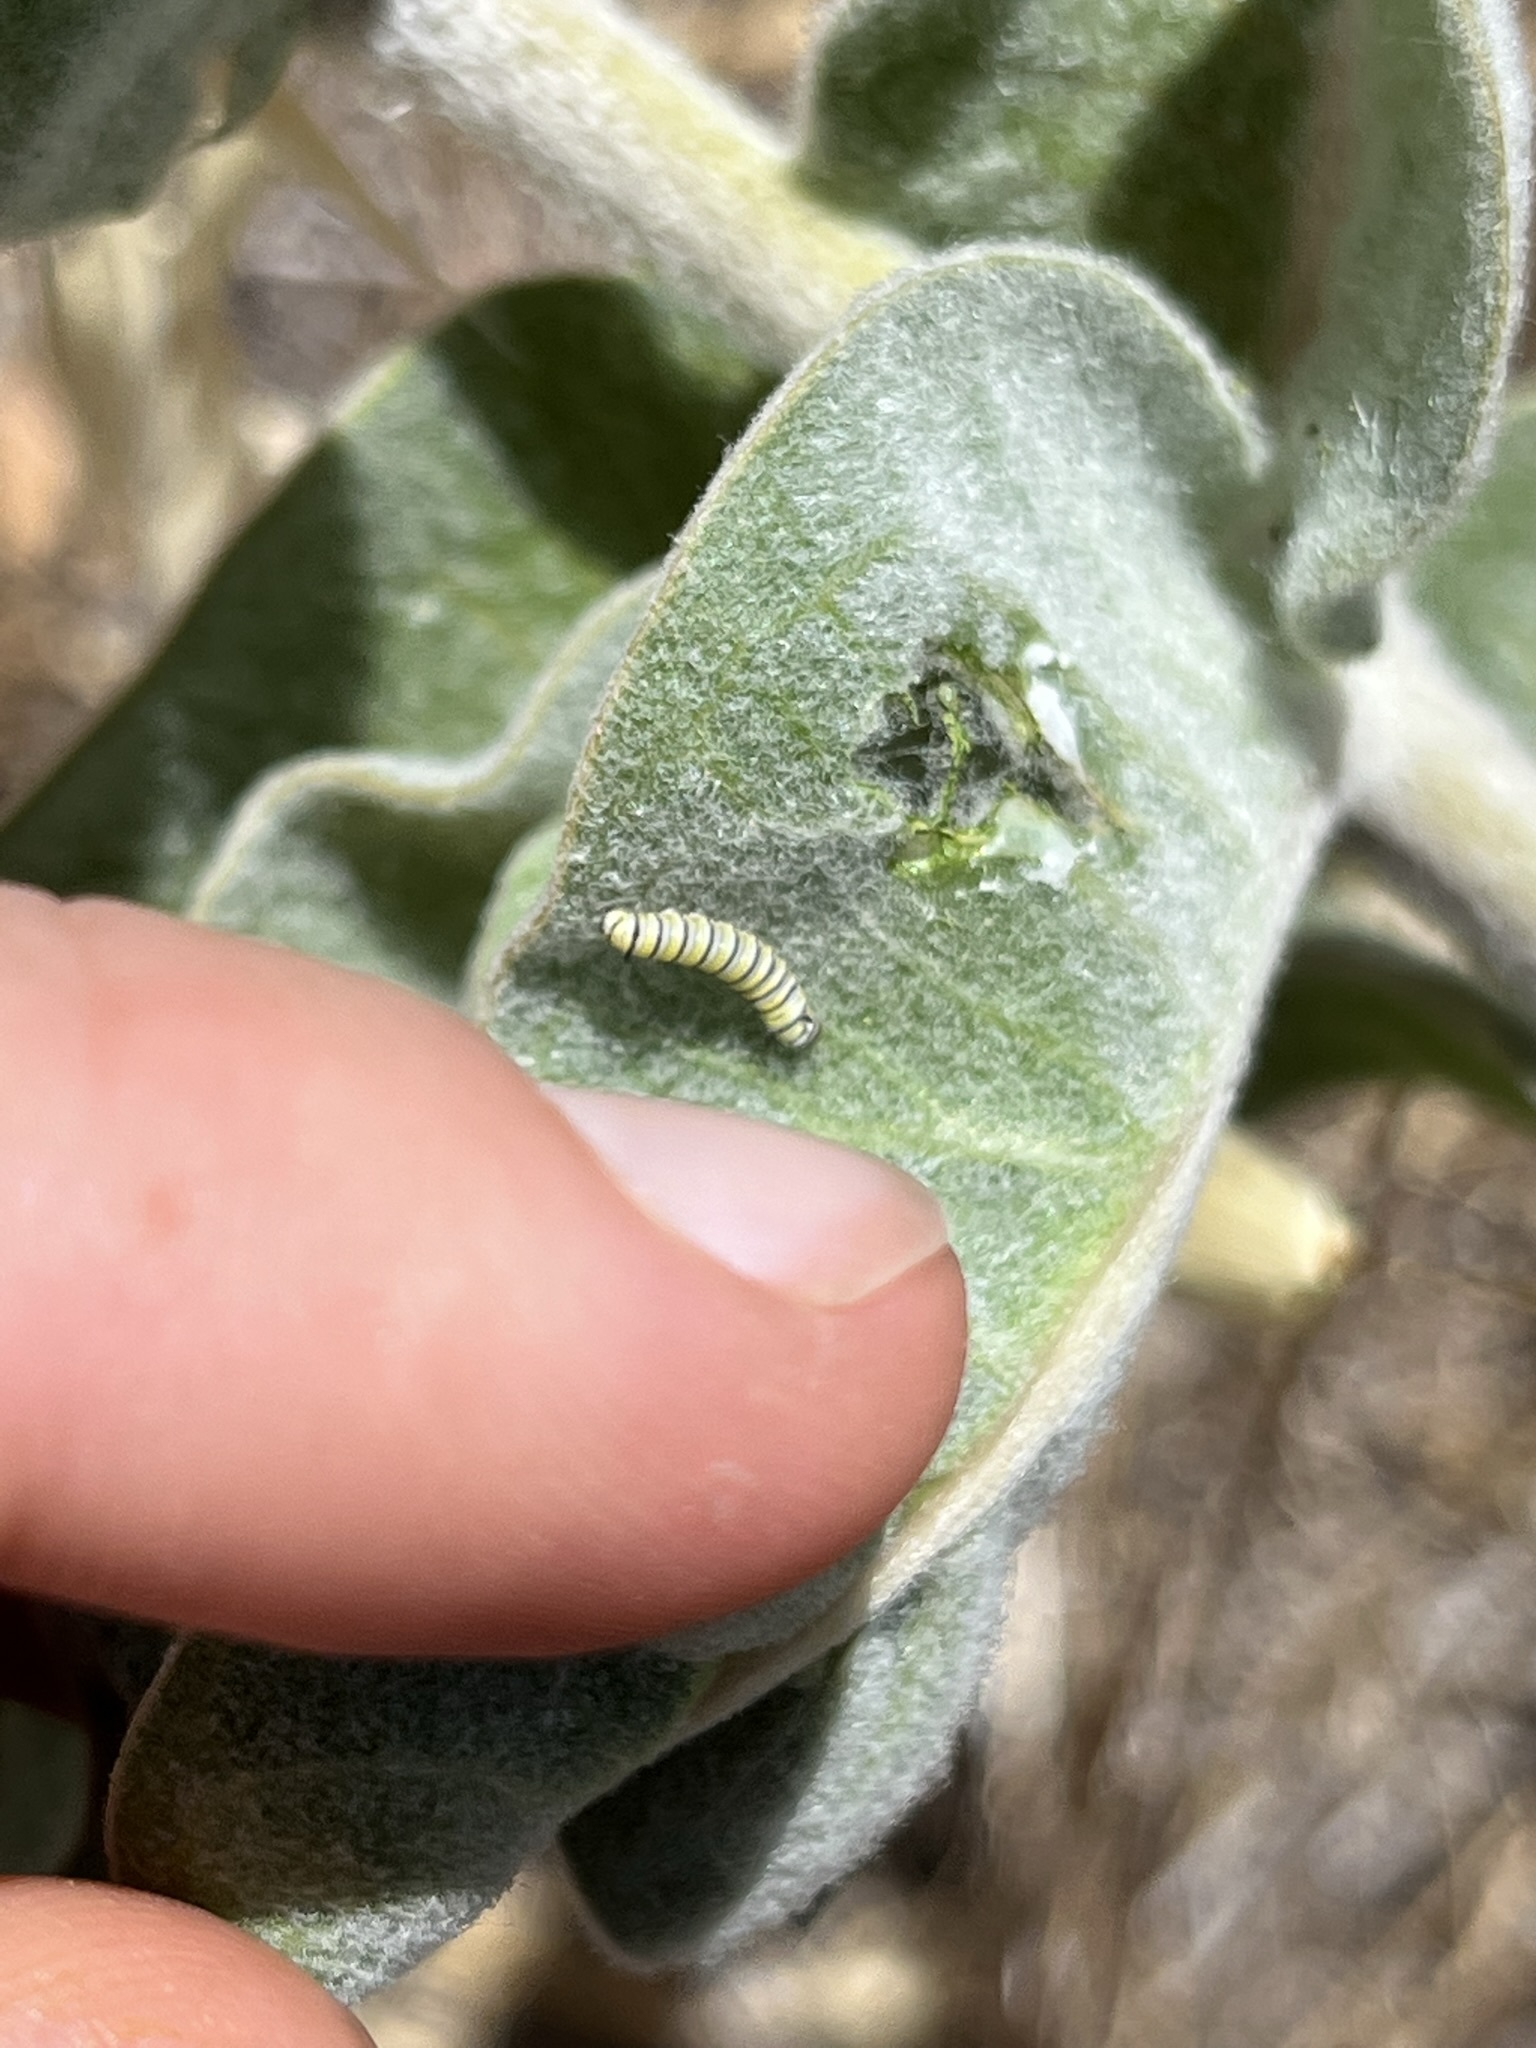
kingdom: Animalia
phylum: Arthropoda
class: Insecta
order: Lepidoptera
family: Nymphalidae
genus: Danaus
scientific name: Danaus plexippus
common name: Monarch
